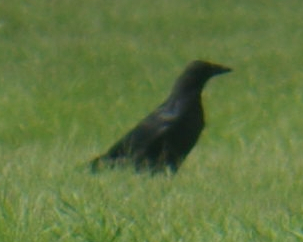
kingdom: Animalia
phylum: Chordata
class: Aves
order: Passeriformes
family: Corvidae
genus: Corvus
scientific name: Corvus brachyrhynchos
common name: American crow
